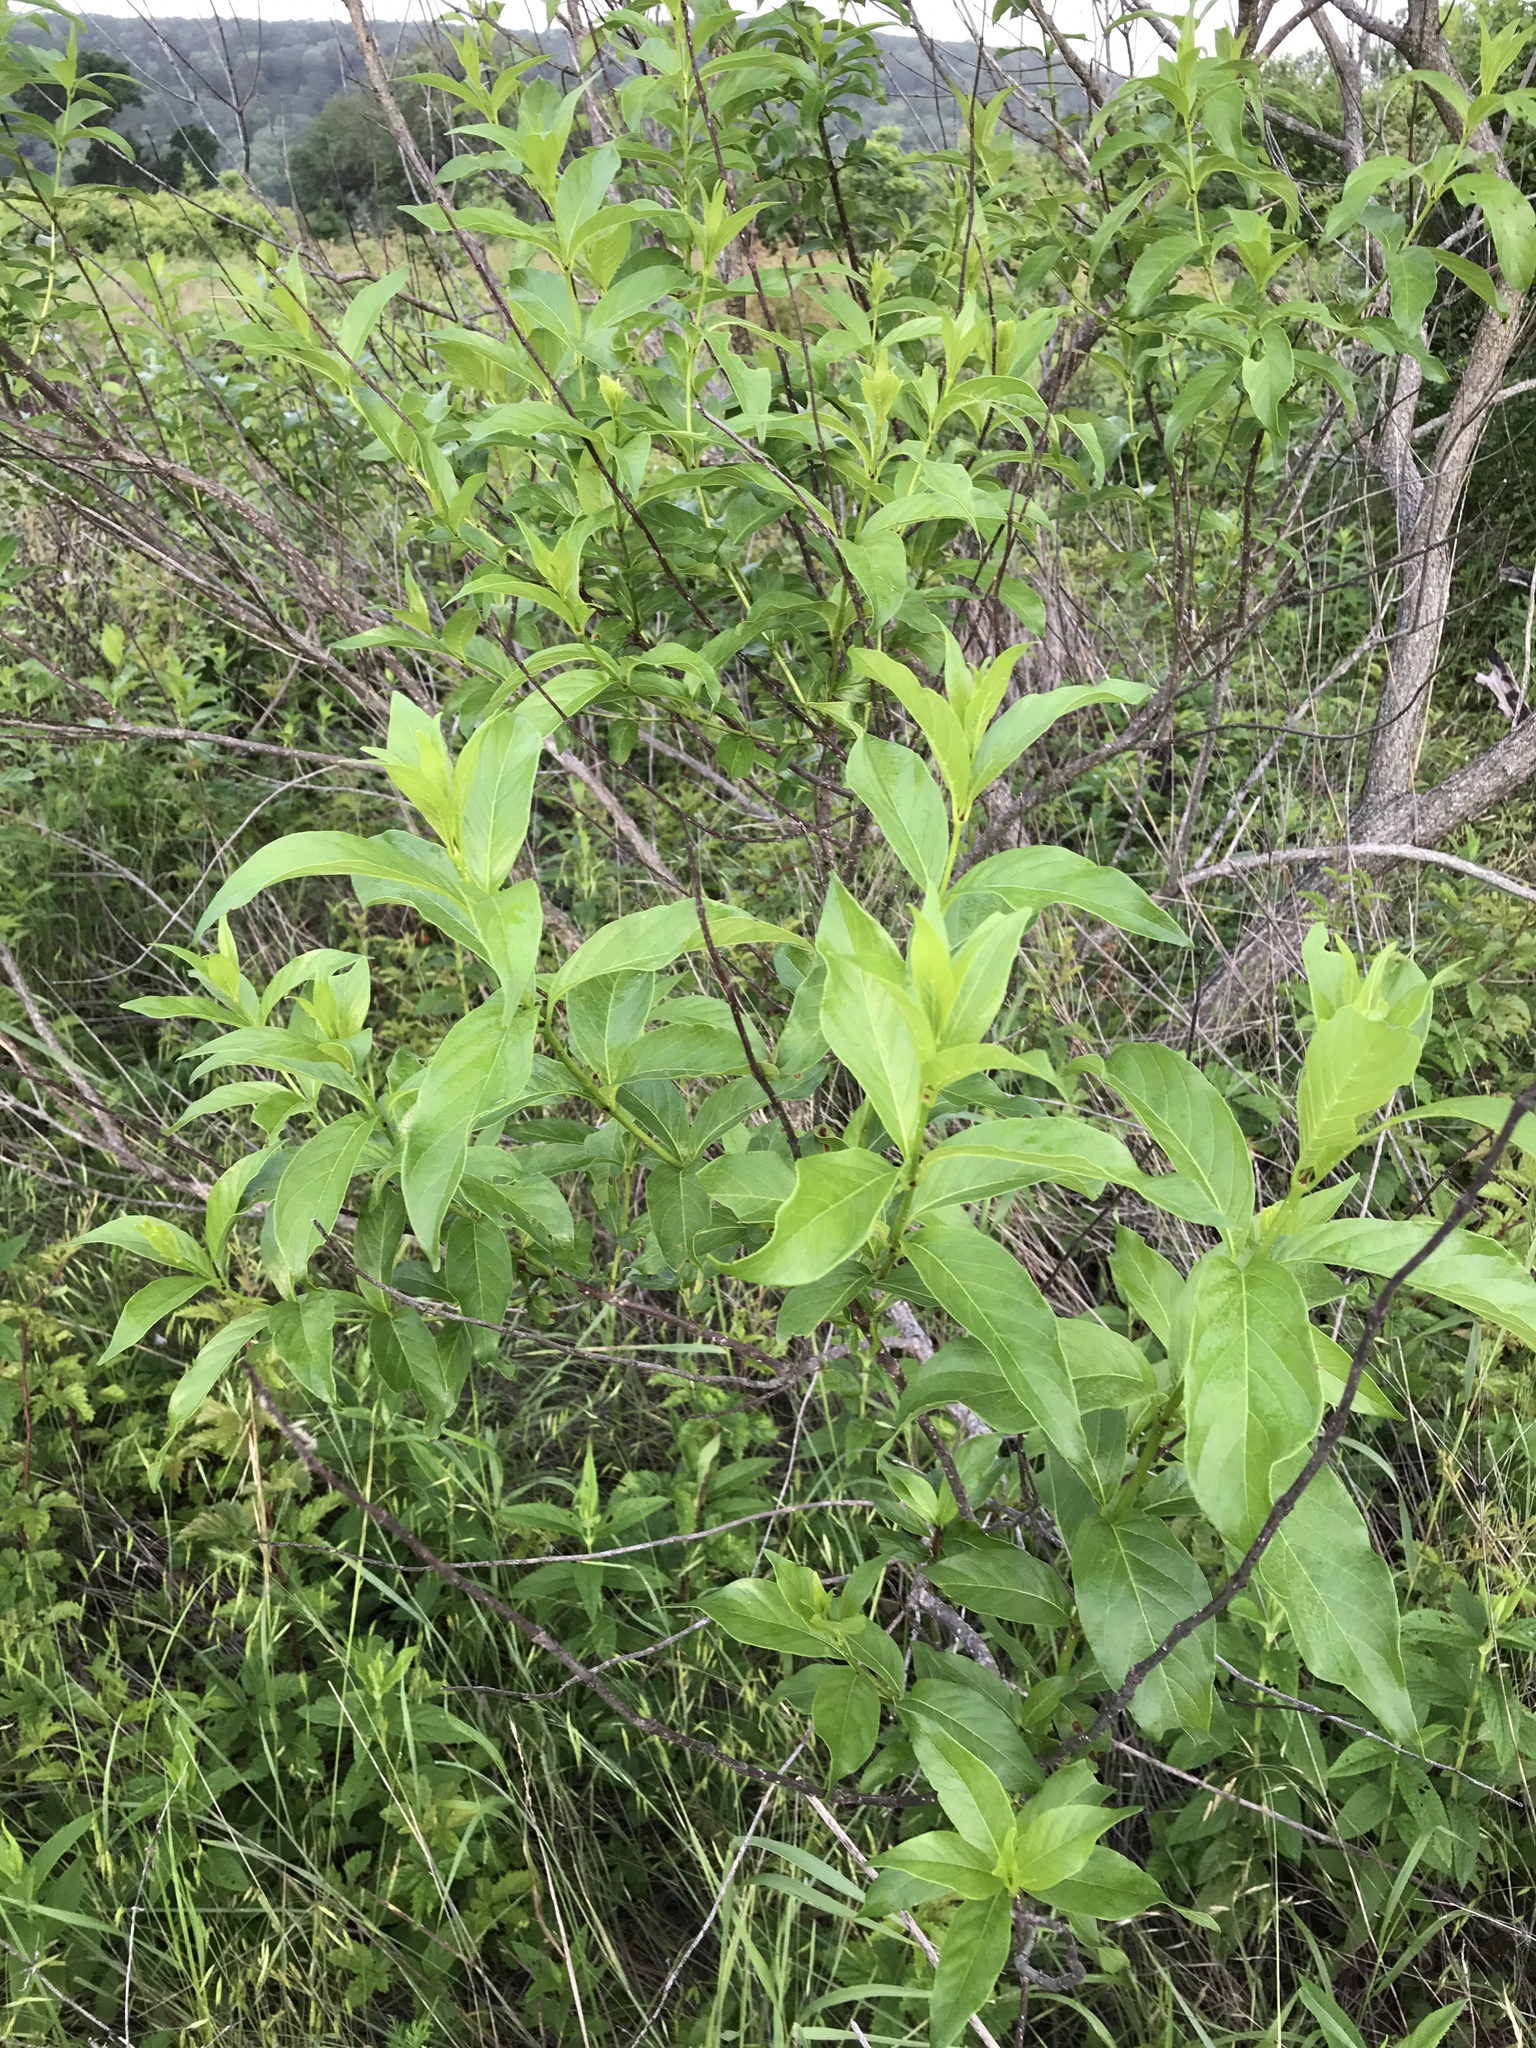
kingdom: Plantae
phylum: Tracheophyta
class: Magnoliopsida
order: Gentianales
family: Rubiaceae
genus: Cephalanthus
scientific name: Cephalanthus occidentalis
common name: Button-willow
